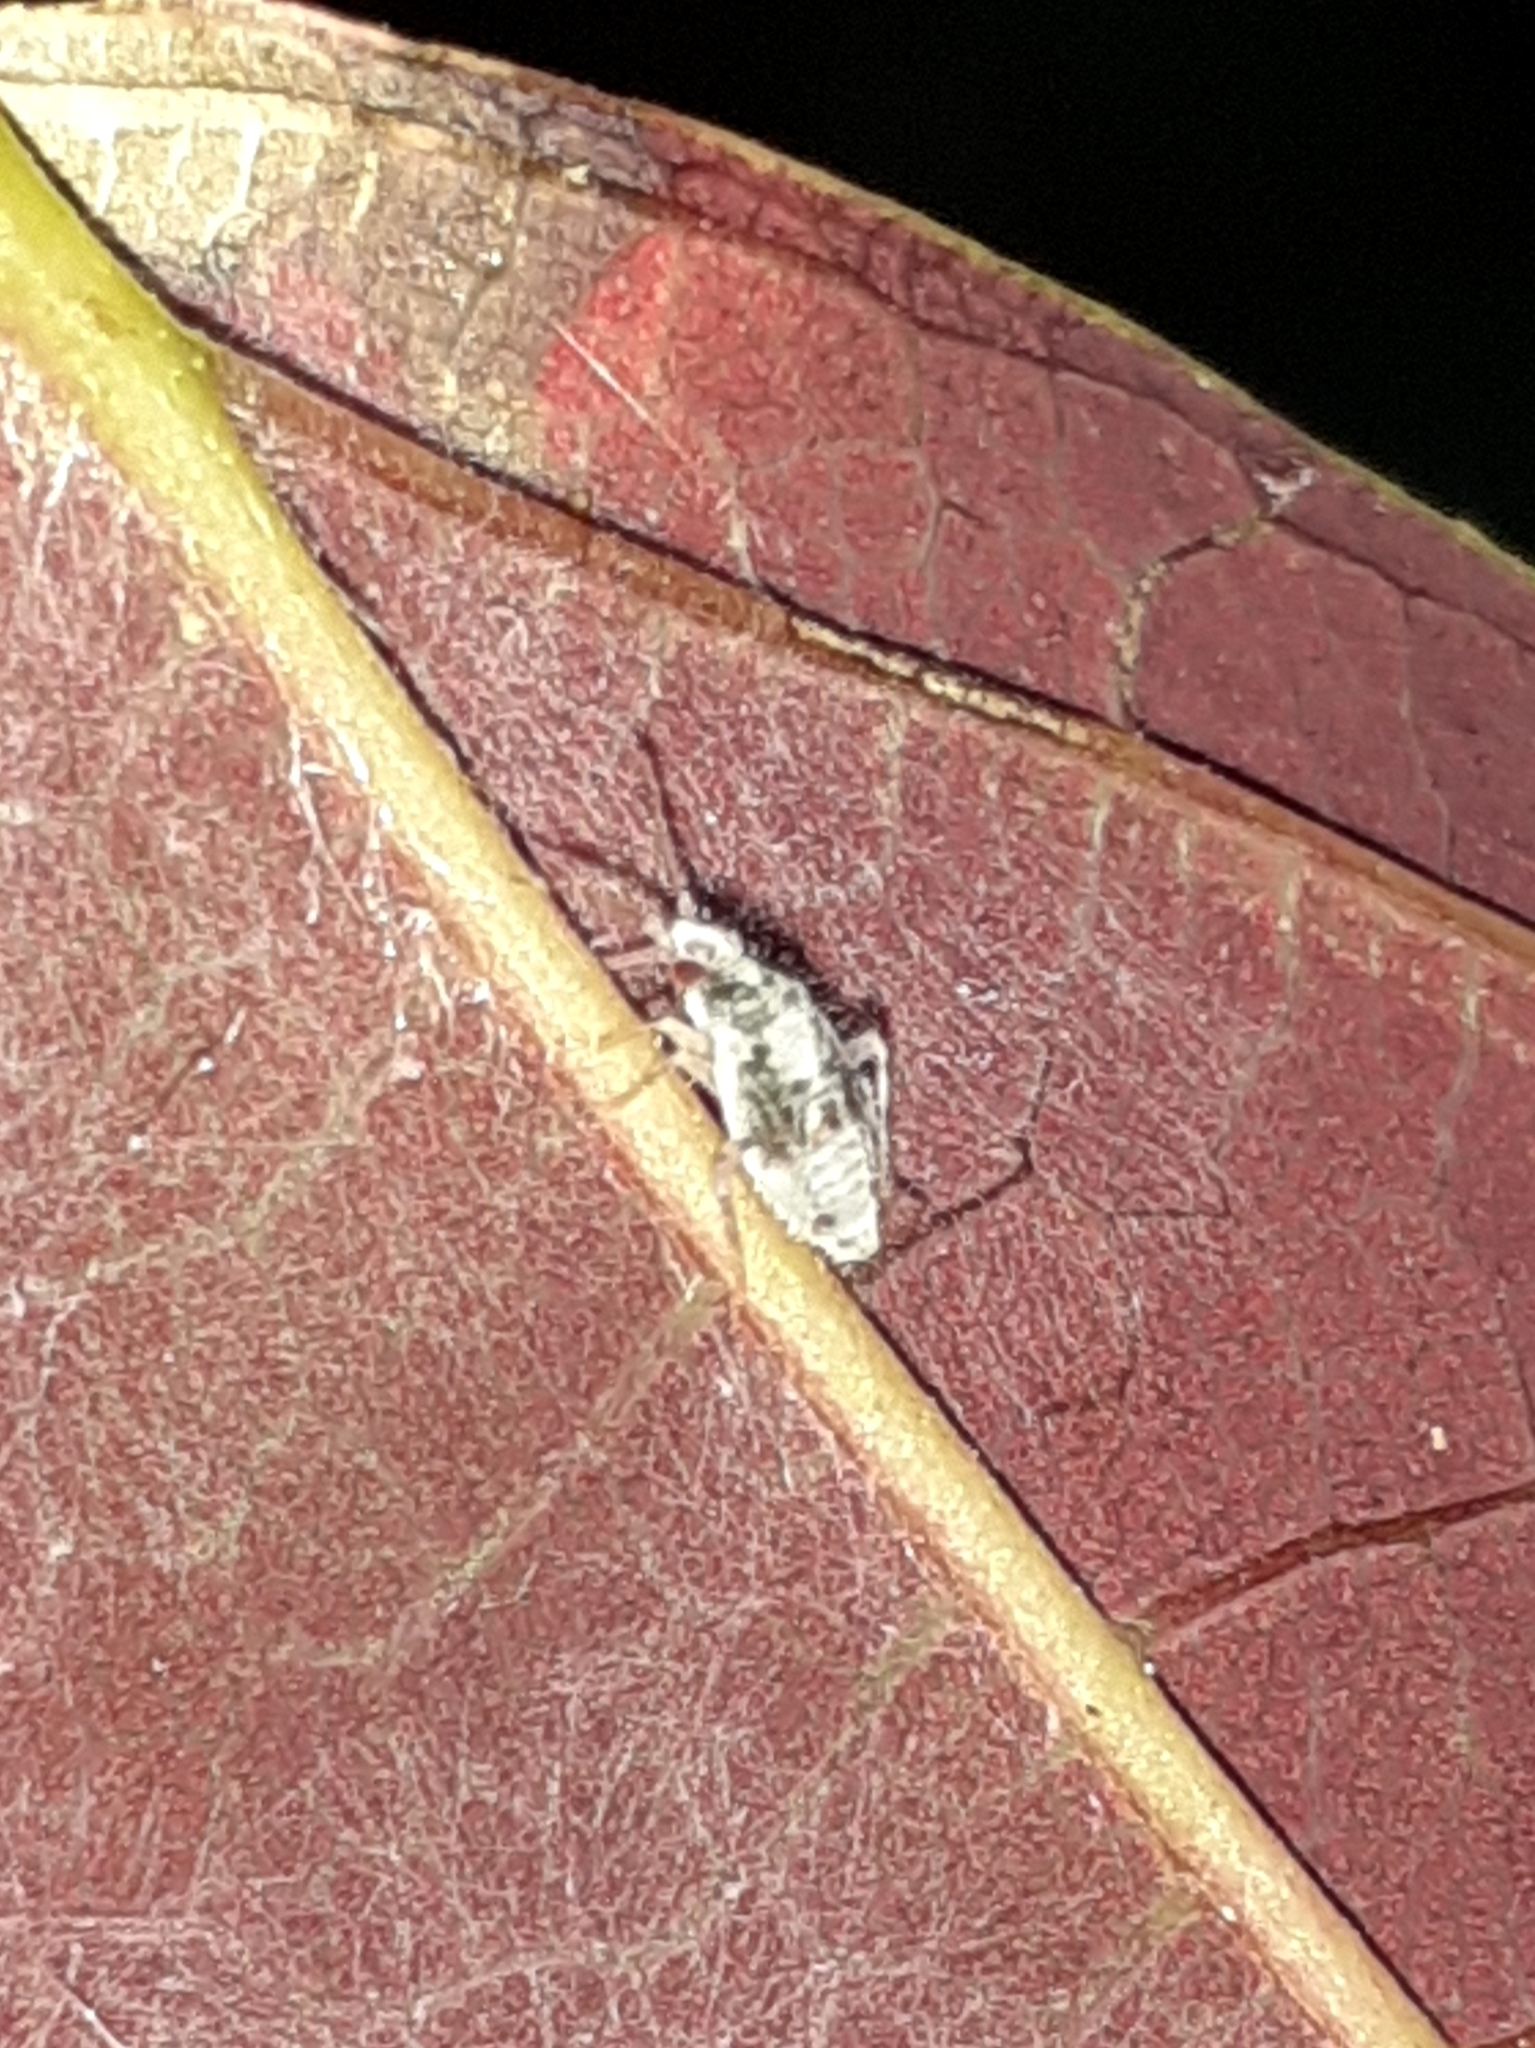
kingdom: Animalia
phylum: Arthropoda
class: Insecta
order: Hemiptera
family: Miridae
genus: Deraeocoris
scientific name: Deraeocoris lutescens
